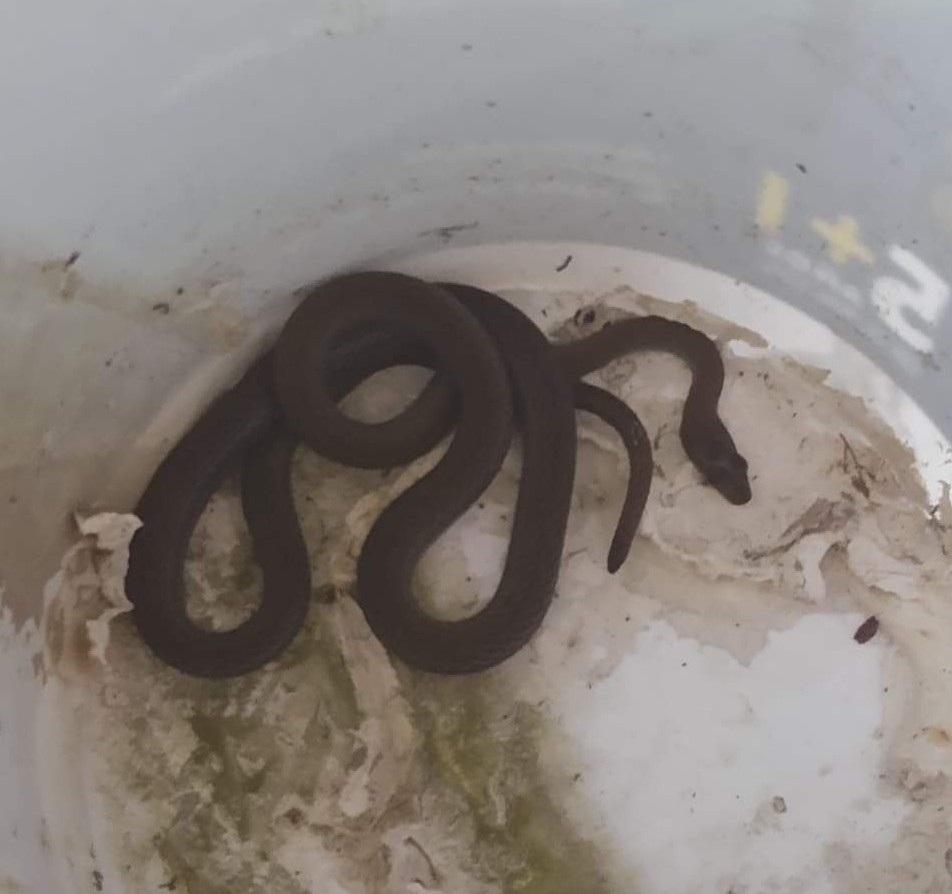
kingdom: Animalia
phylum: Chordata
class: Squamata
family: Colubridae
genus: Masticophis
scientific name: Masticophis mentovarius
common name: Neotropical whip snake
